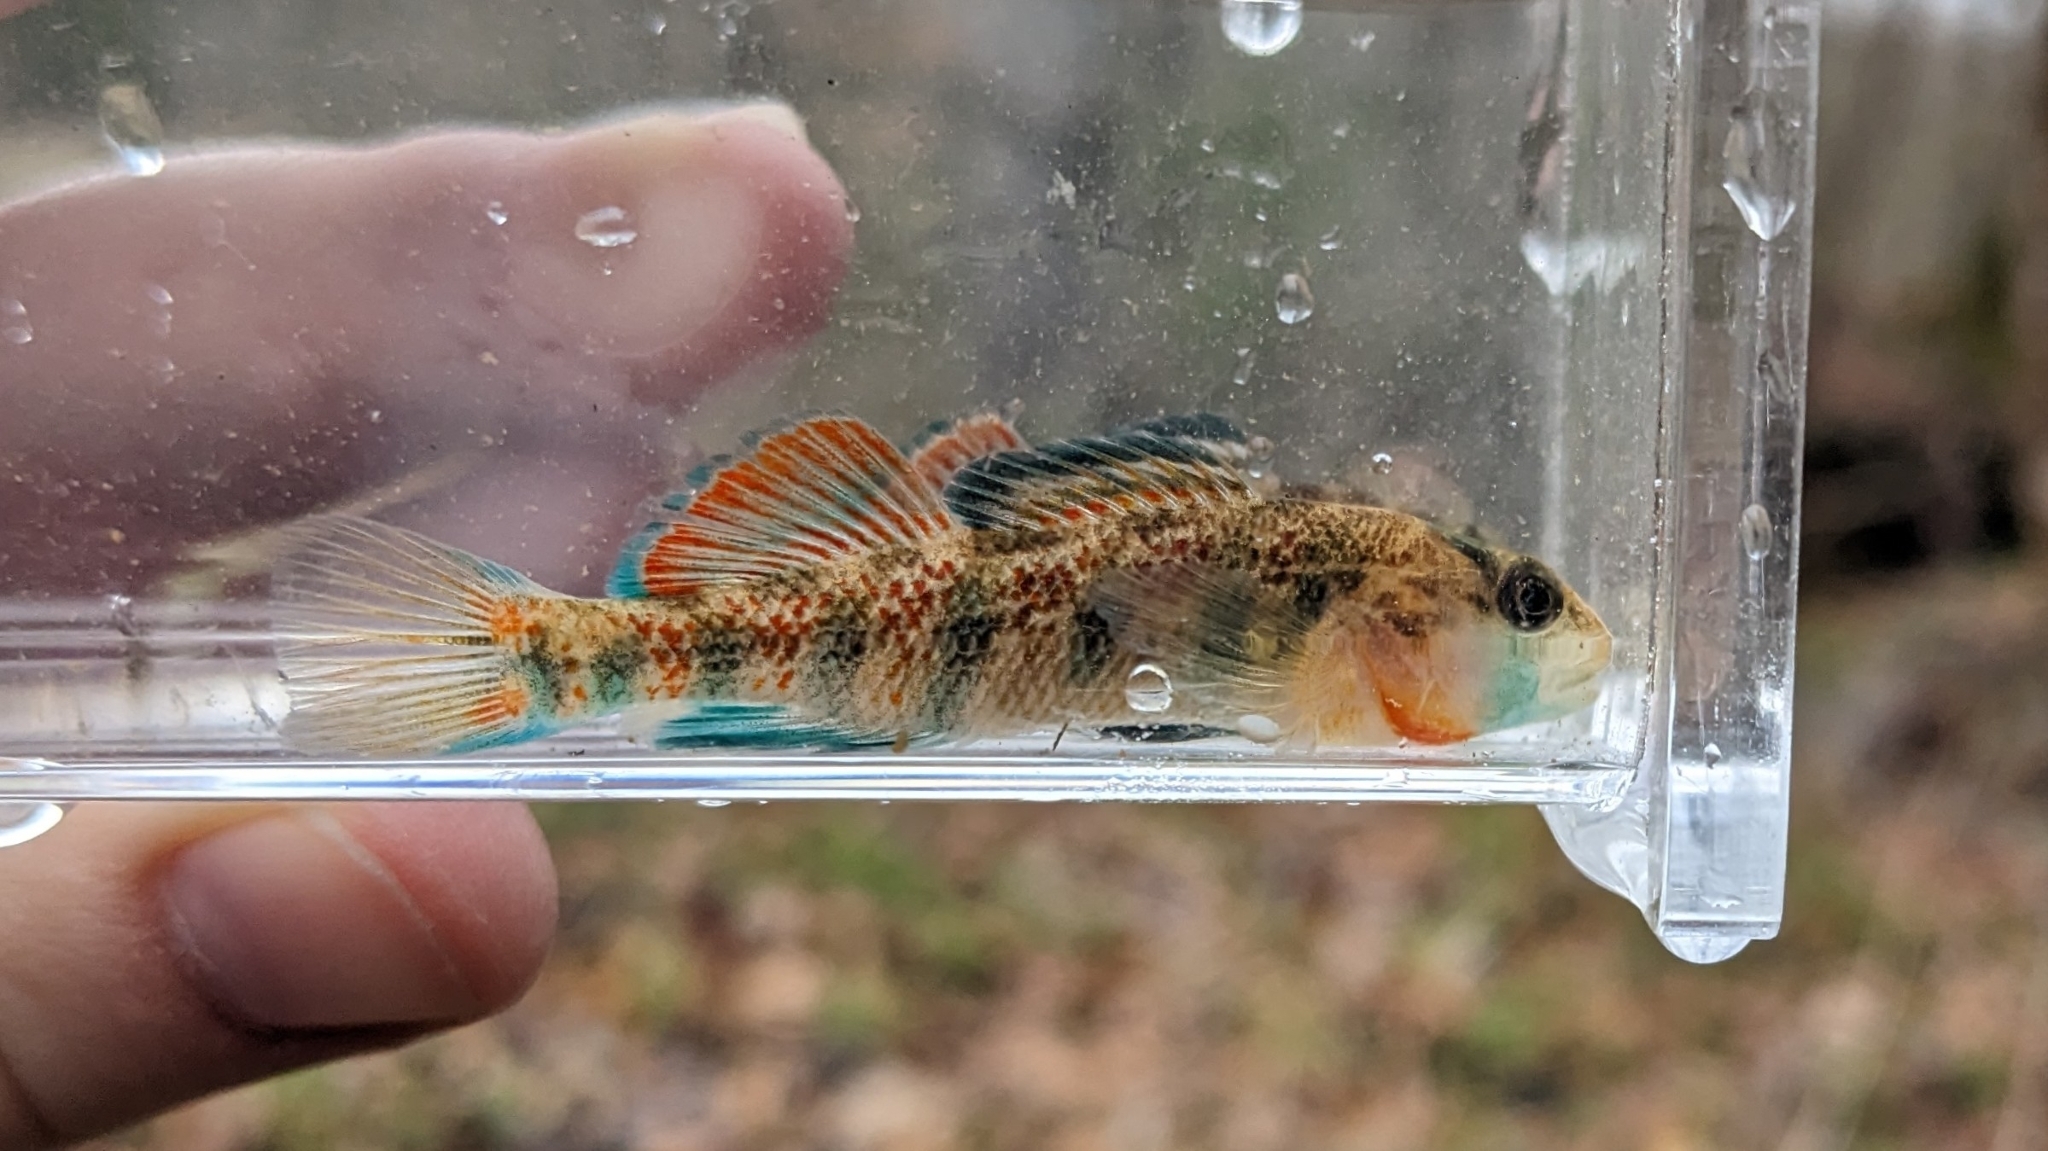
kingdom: Animalia
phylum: Chordata
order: Perciformes
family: Percidae
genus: Etheostoma
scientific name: Etheostoma bison
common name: Buffalo darter
